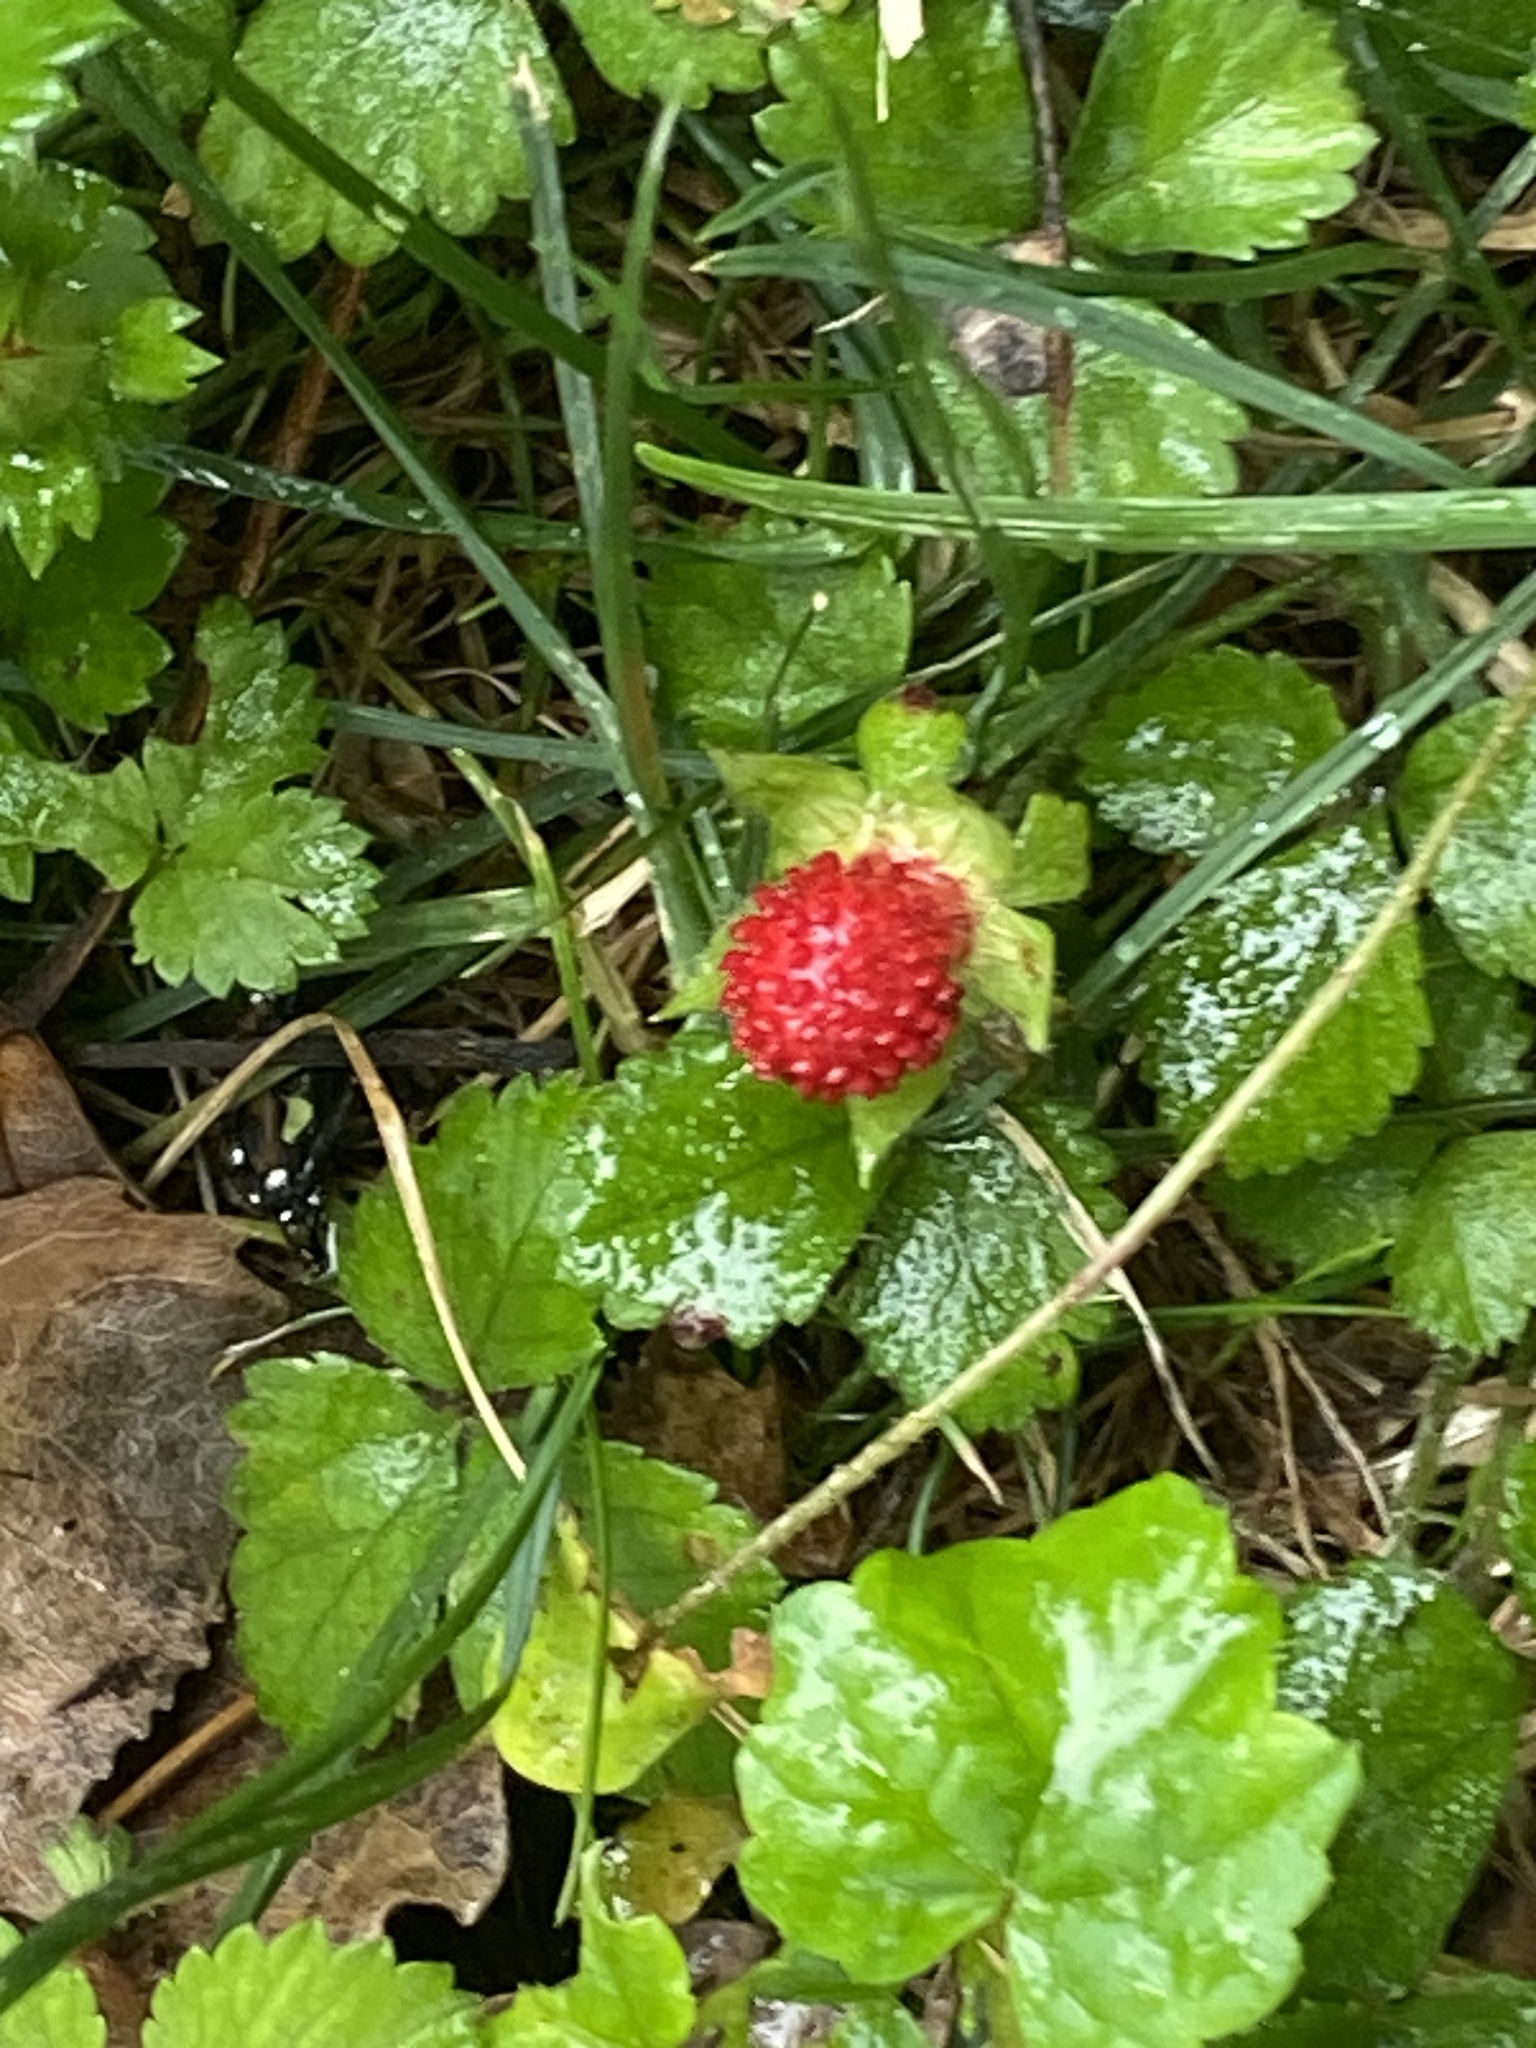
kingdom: Plantae
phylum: Tracheophyta
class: Magnoliopsida
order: Rosales
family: Rosaceae
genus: Potentilla
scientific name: Potentilla indica
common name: Yellow-flowered strawberry
